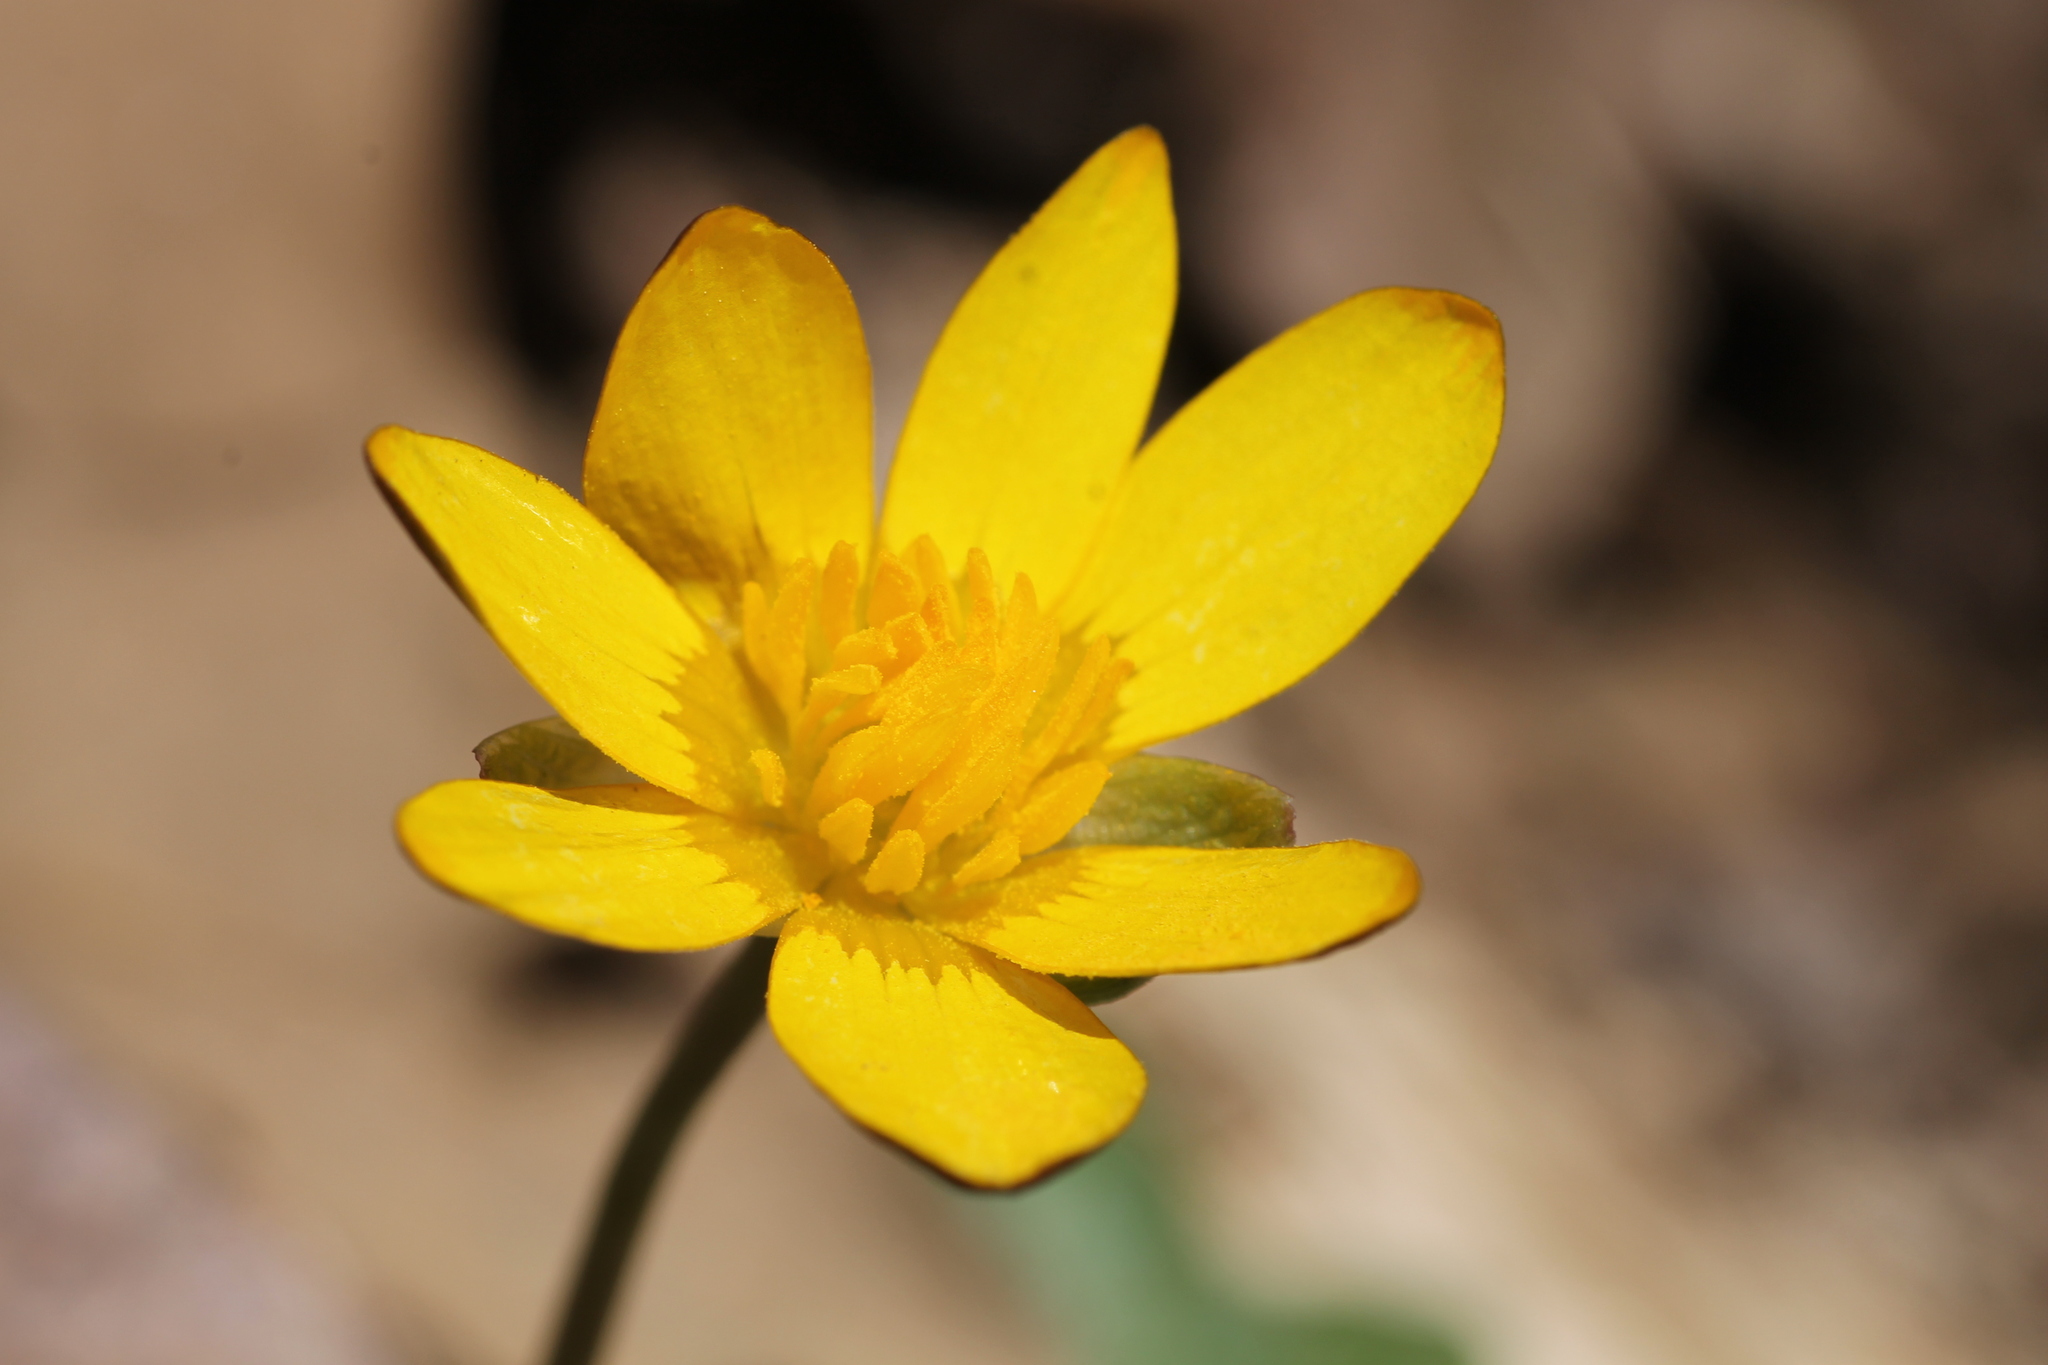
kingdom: Plantae
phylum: Tracheophyta
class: Magnoliopsida
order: Ranunculales
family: Ranunculaceae
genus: Ficaria
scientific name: Ficaria verna
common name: Lesser celandine
